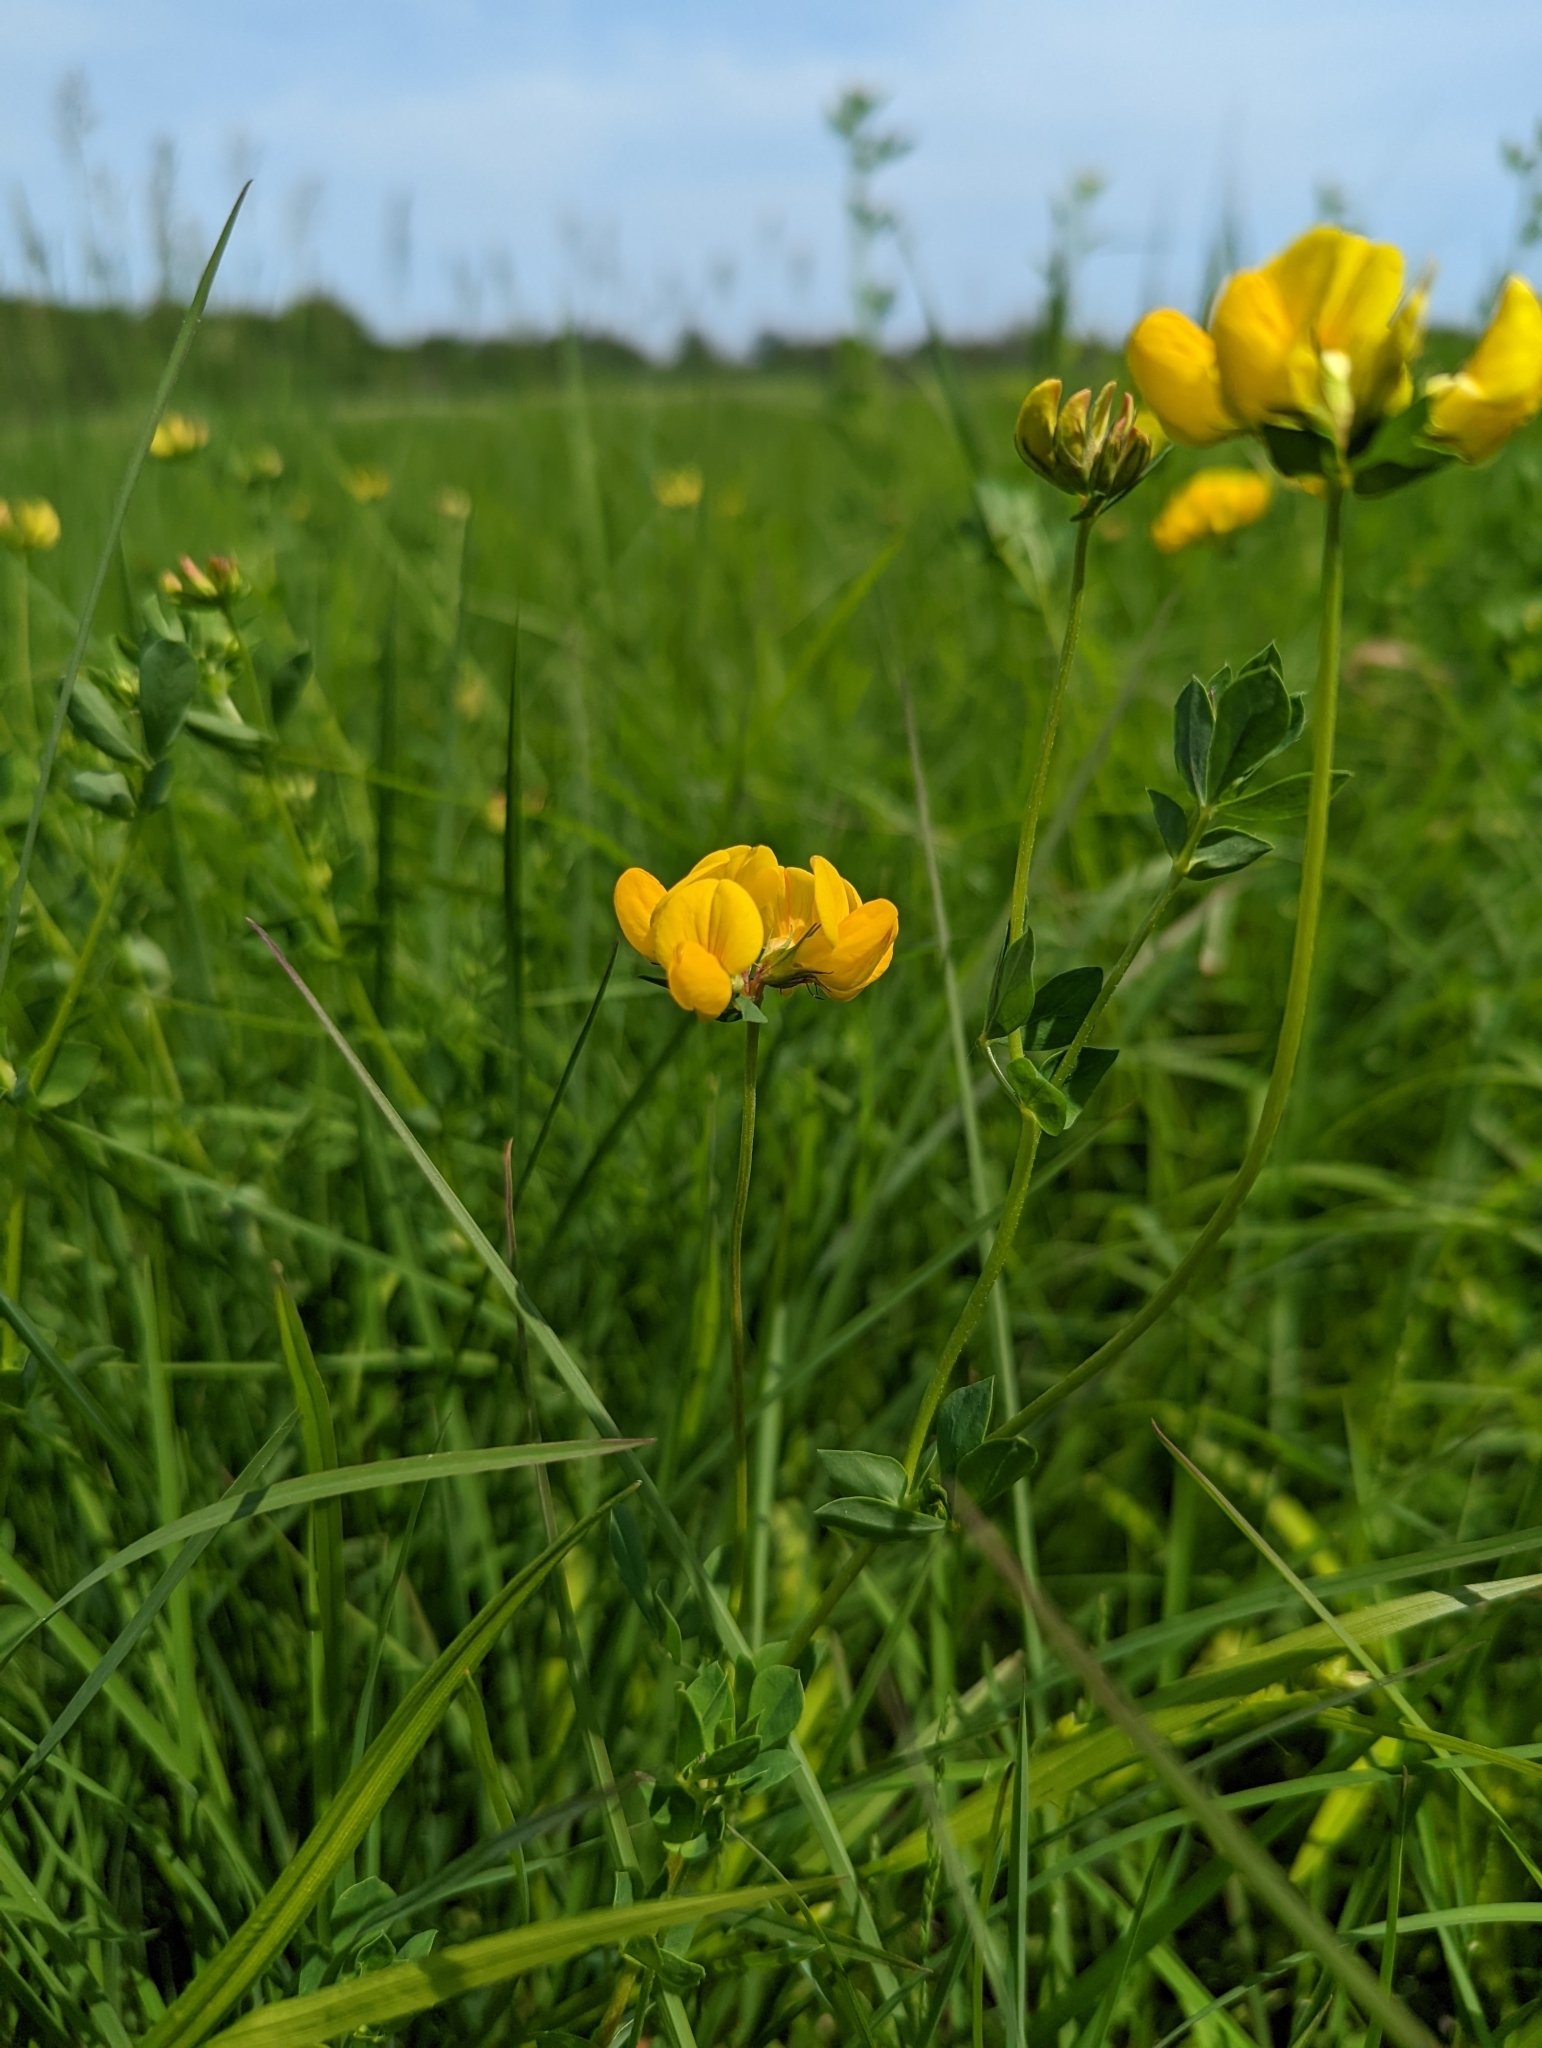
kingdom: Plantae
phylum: Tracheophyta
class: Magnoliopsida
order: Fabales
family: Fabaceae
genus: Lotus
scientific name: Lotus corniculatus
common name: Common bird's-foot-trefoil
